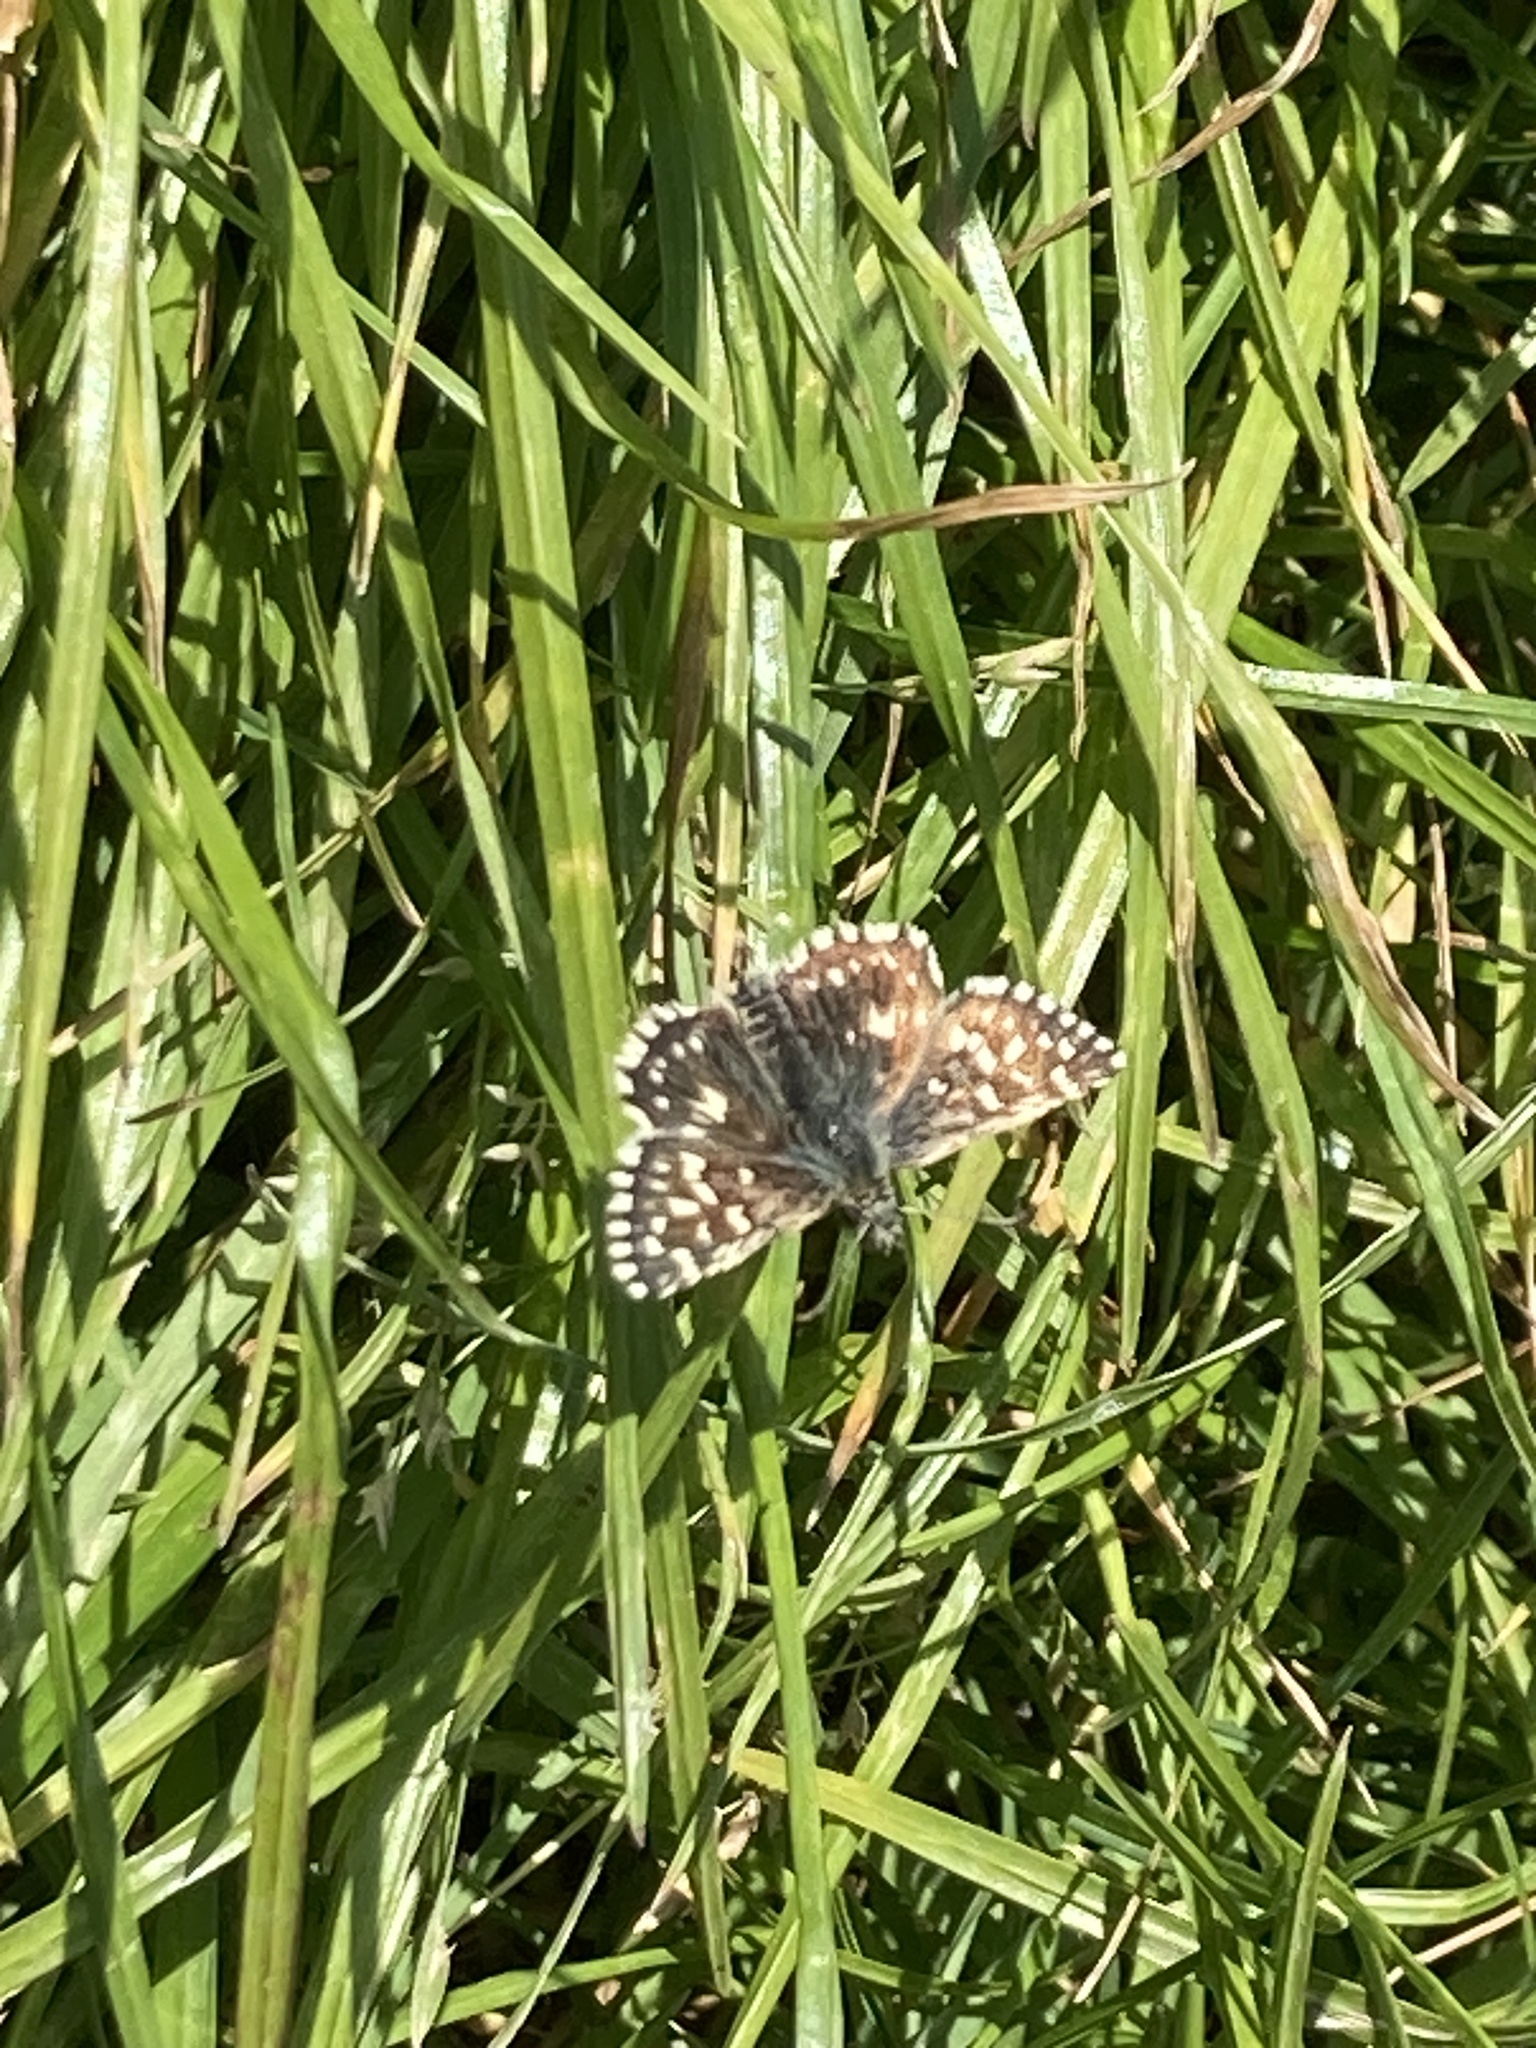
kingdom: Animalia
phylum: Arthropoda
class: Insecta
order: Lepidoptera
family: Hesperiidae
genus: Pyrgus
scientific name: Pyrgus malvae
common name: Grizzled skipper
